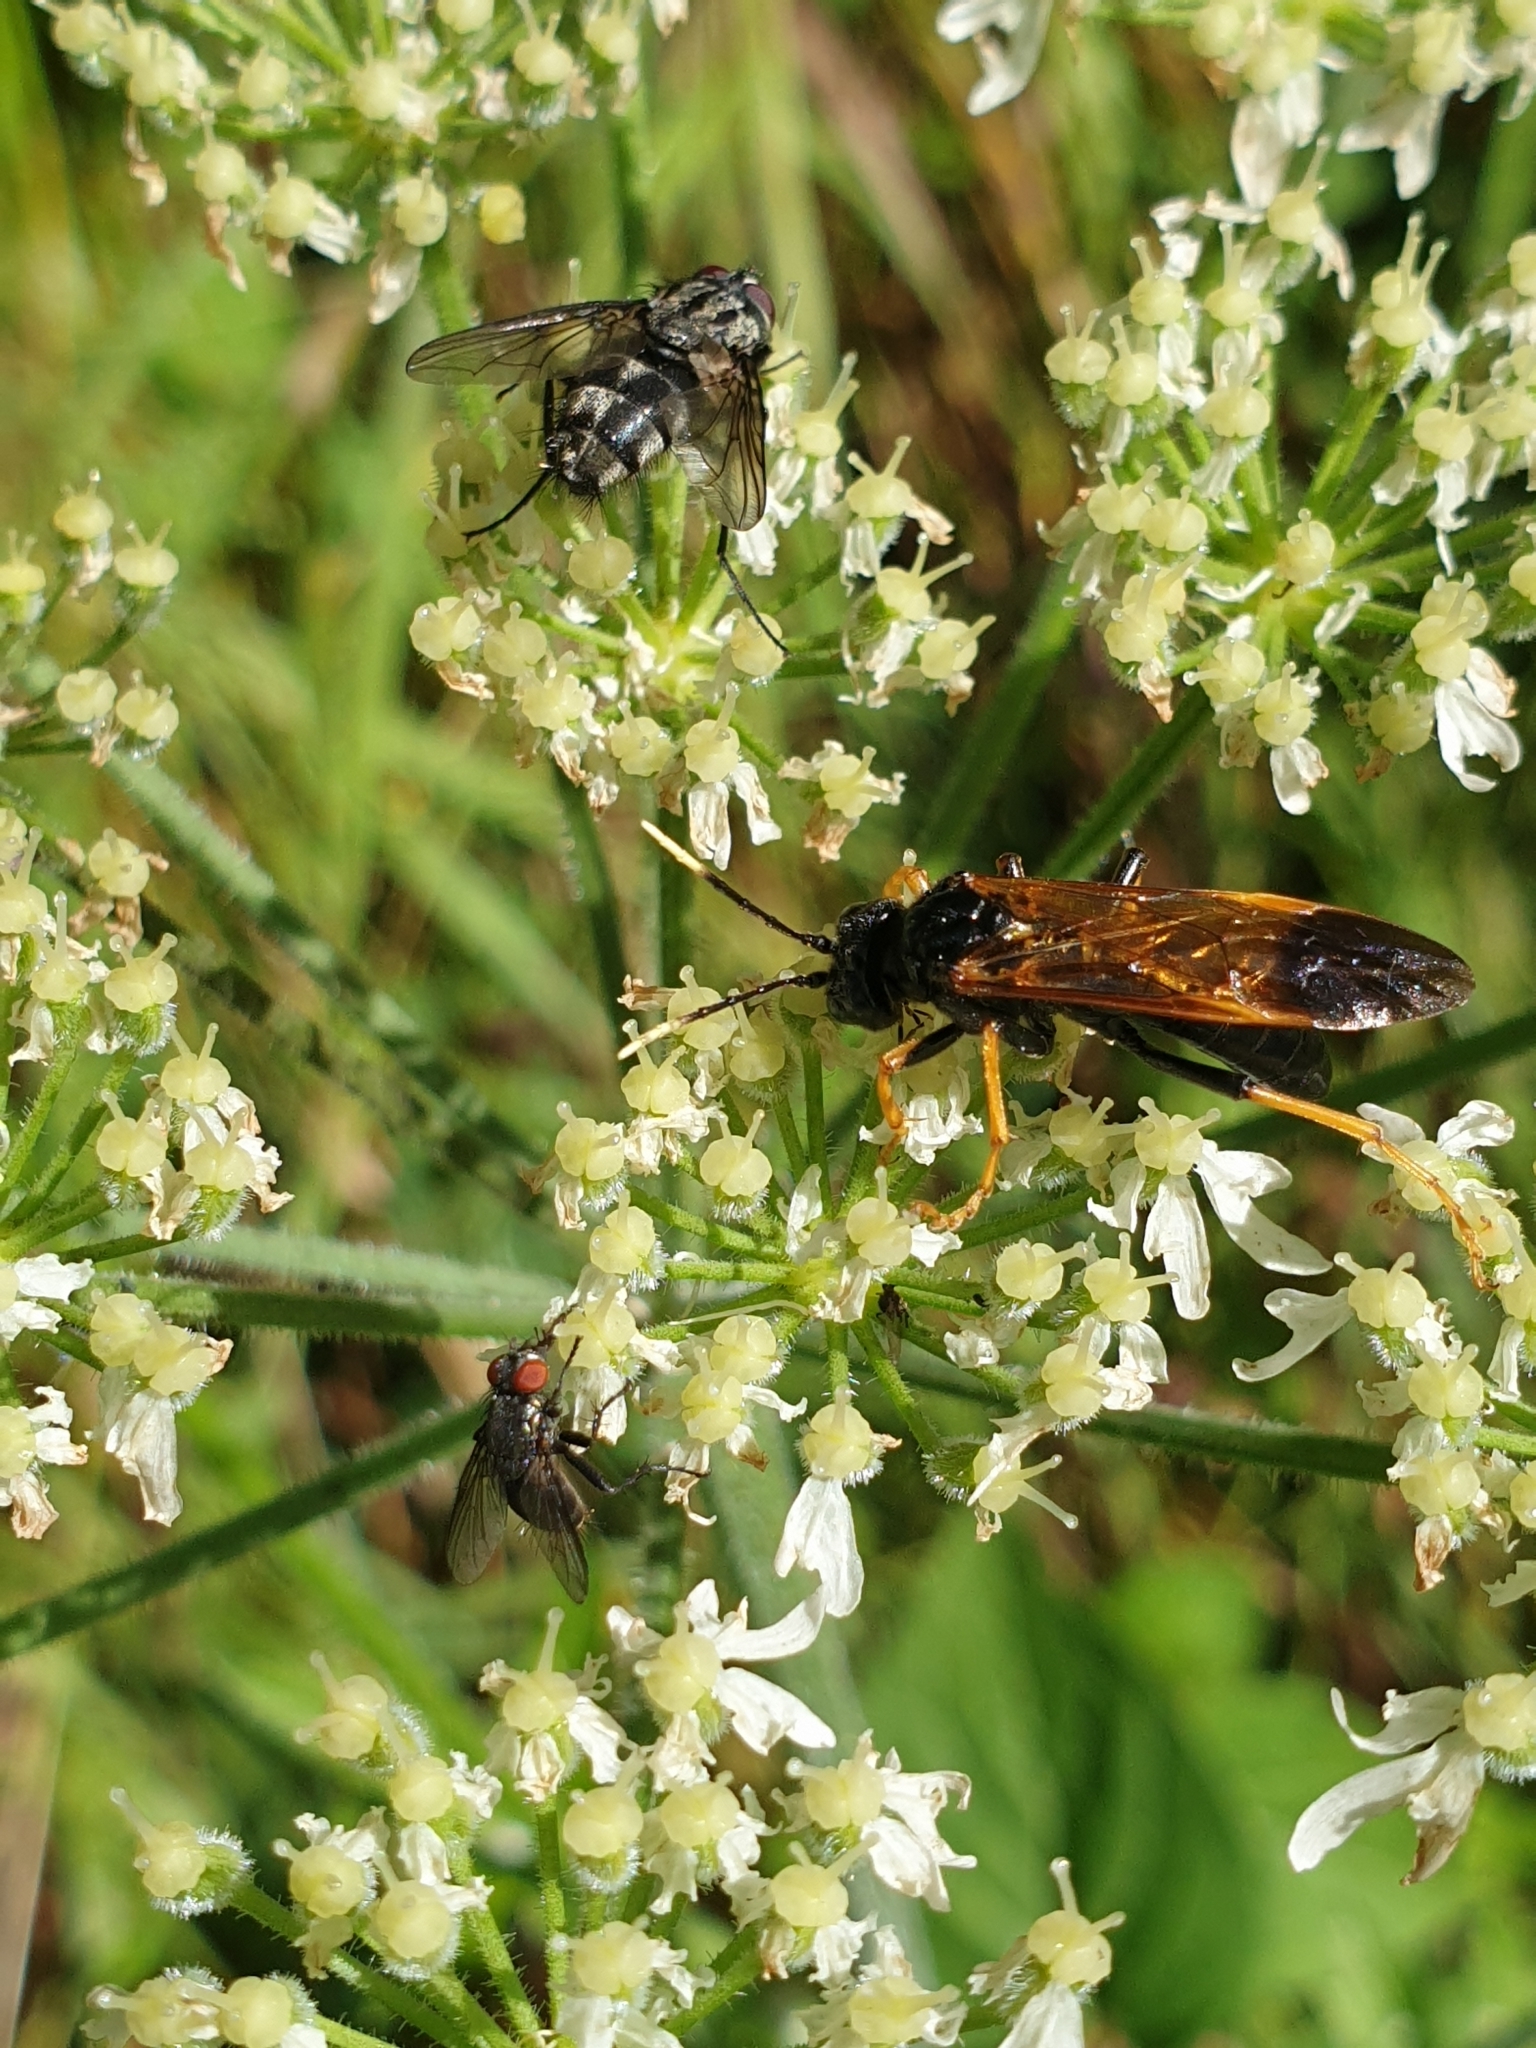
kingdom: Animalia
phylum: Arthropoda
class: Insecta
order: Hymenoptera
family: Tenthredinidae
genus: Tenthredo
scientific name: Tenthredo crassa
